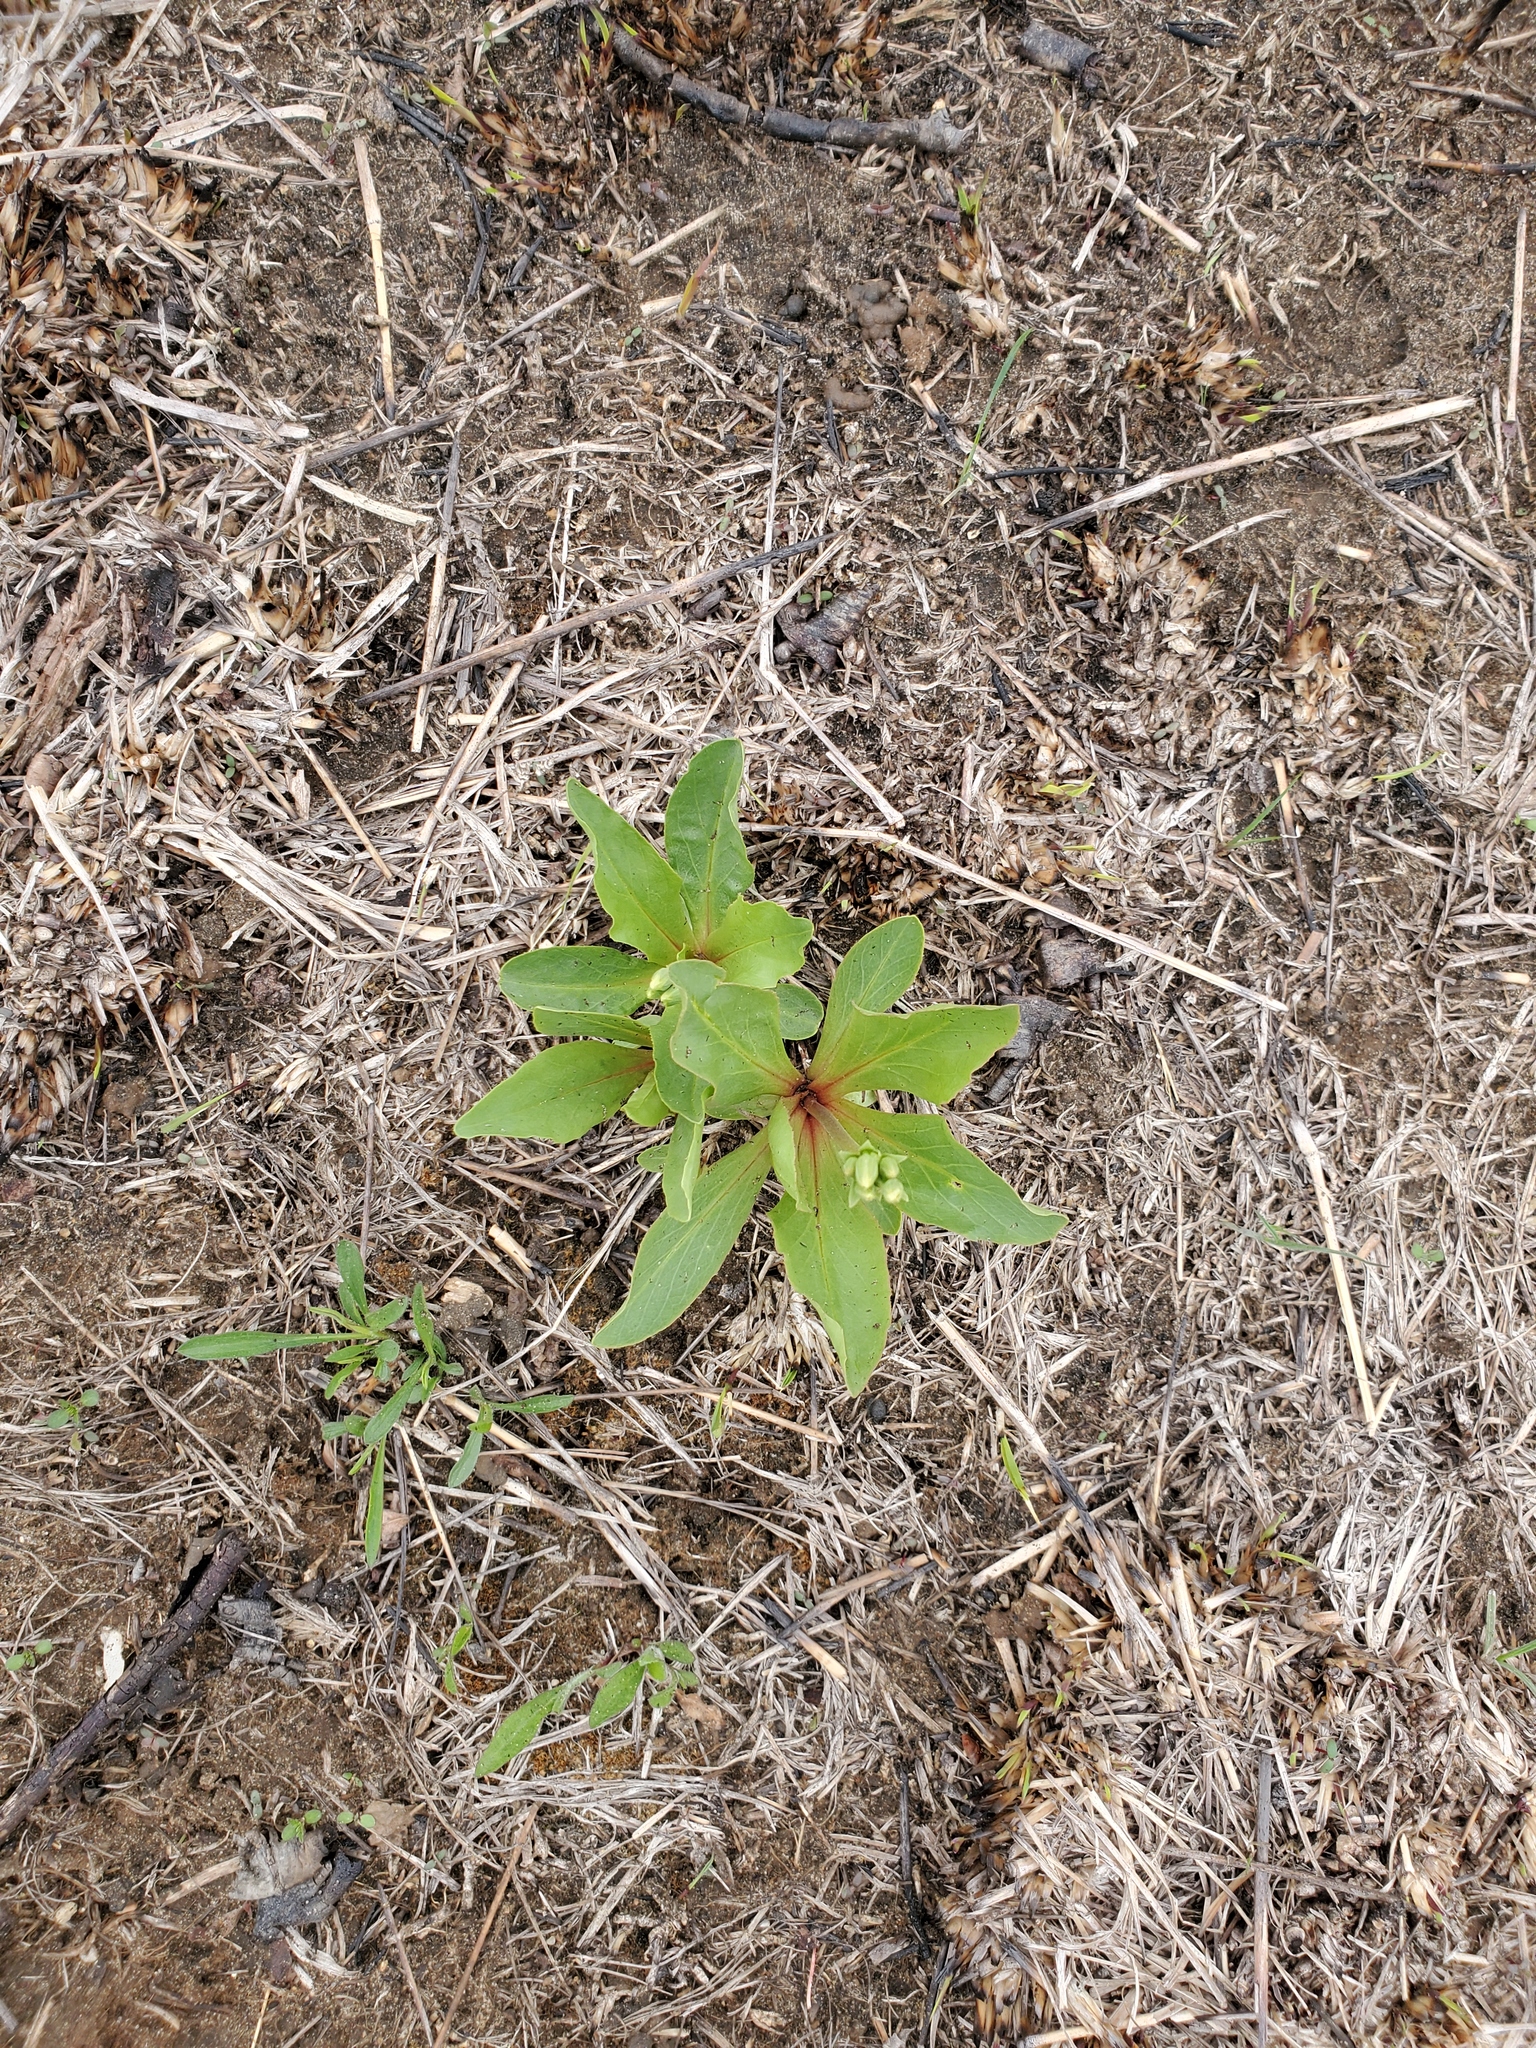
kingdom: Plantae
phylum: Tracheophyta
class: Magnoliopsida
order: Ericales
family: Primulaceae
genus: Dodecatheon
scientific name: Dodecatheon meadia
